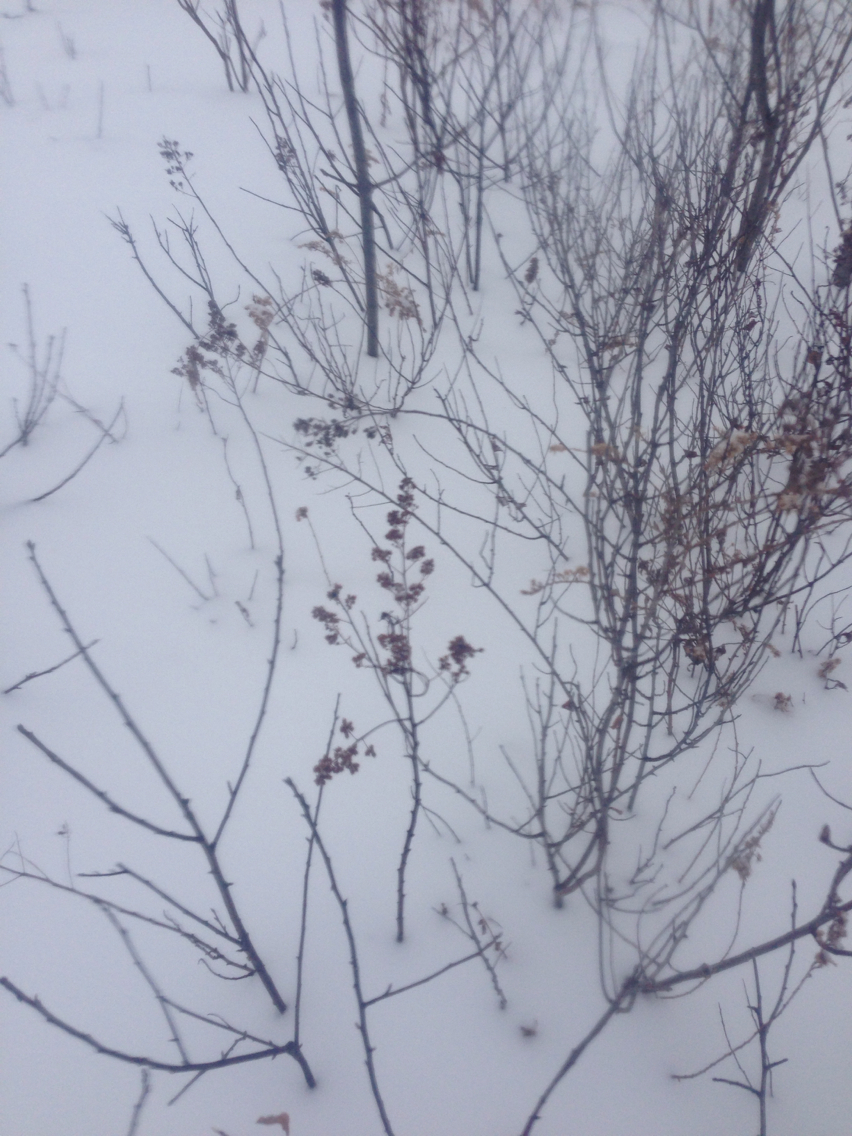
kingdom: Plantae
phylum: Tracheophyta
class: Magnoliopsida
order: Rosales
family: Rosaceae
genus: Spiraea
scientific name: Spiraea alba
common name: Pale bridewort
